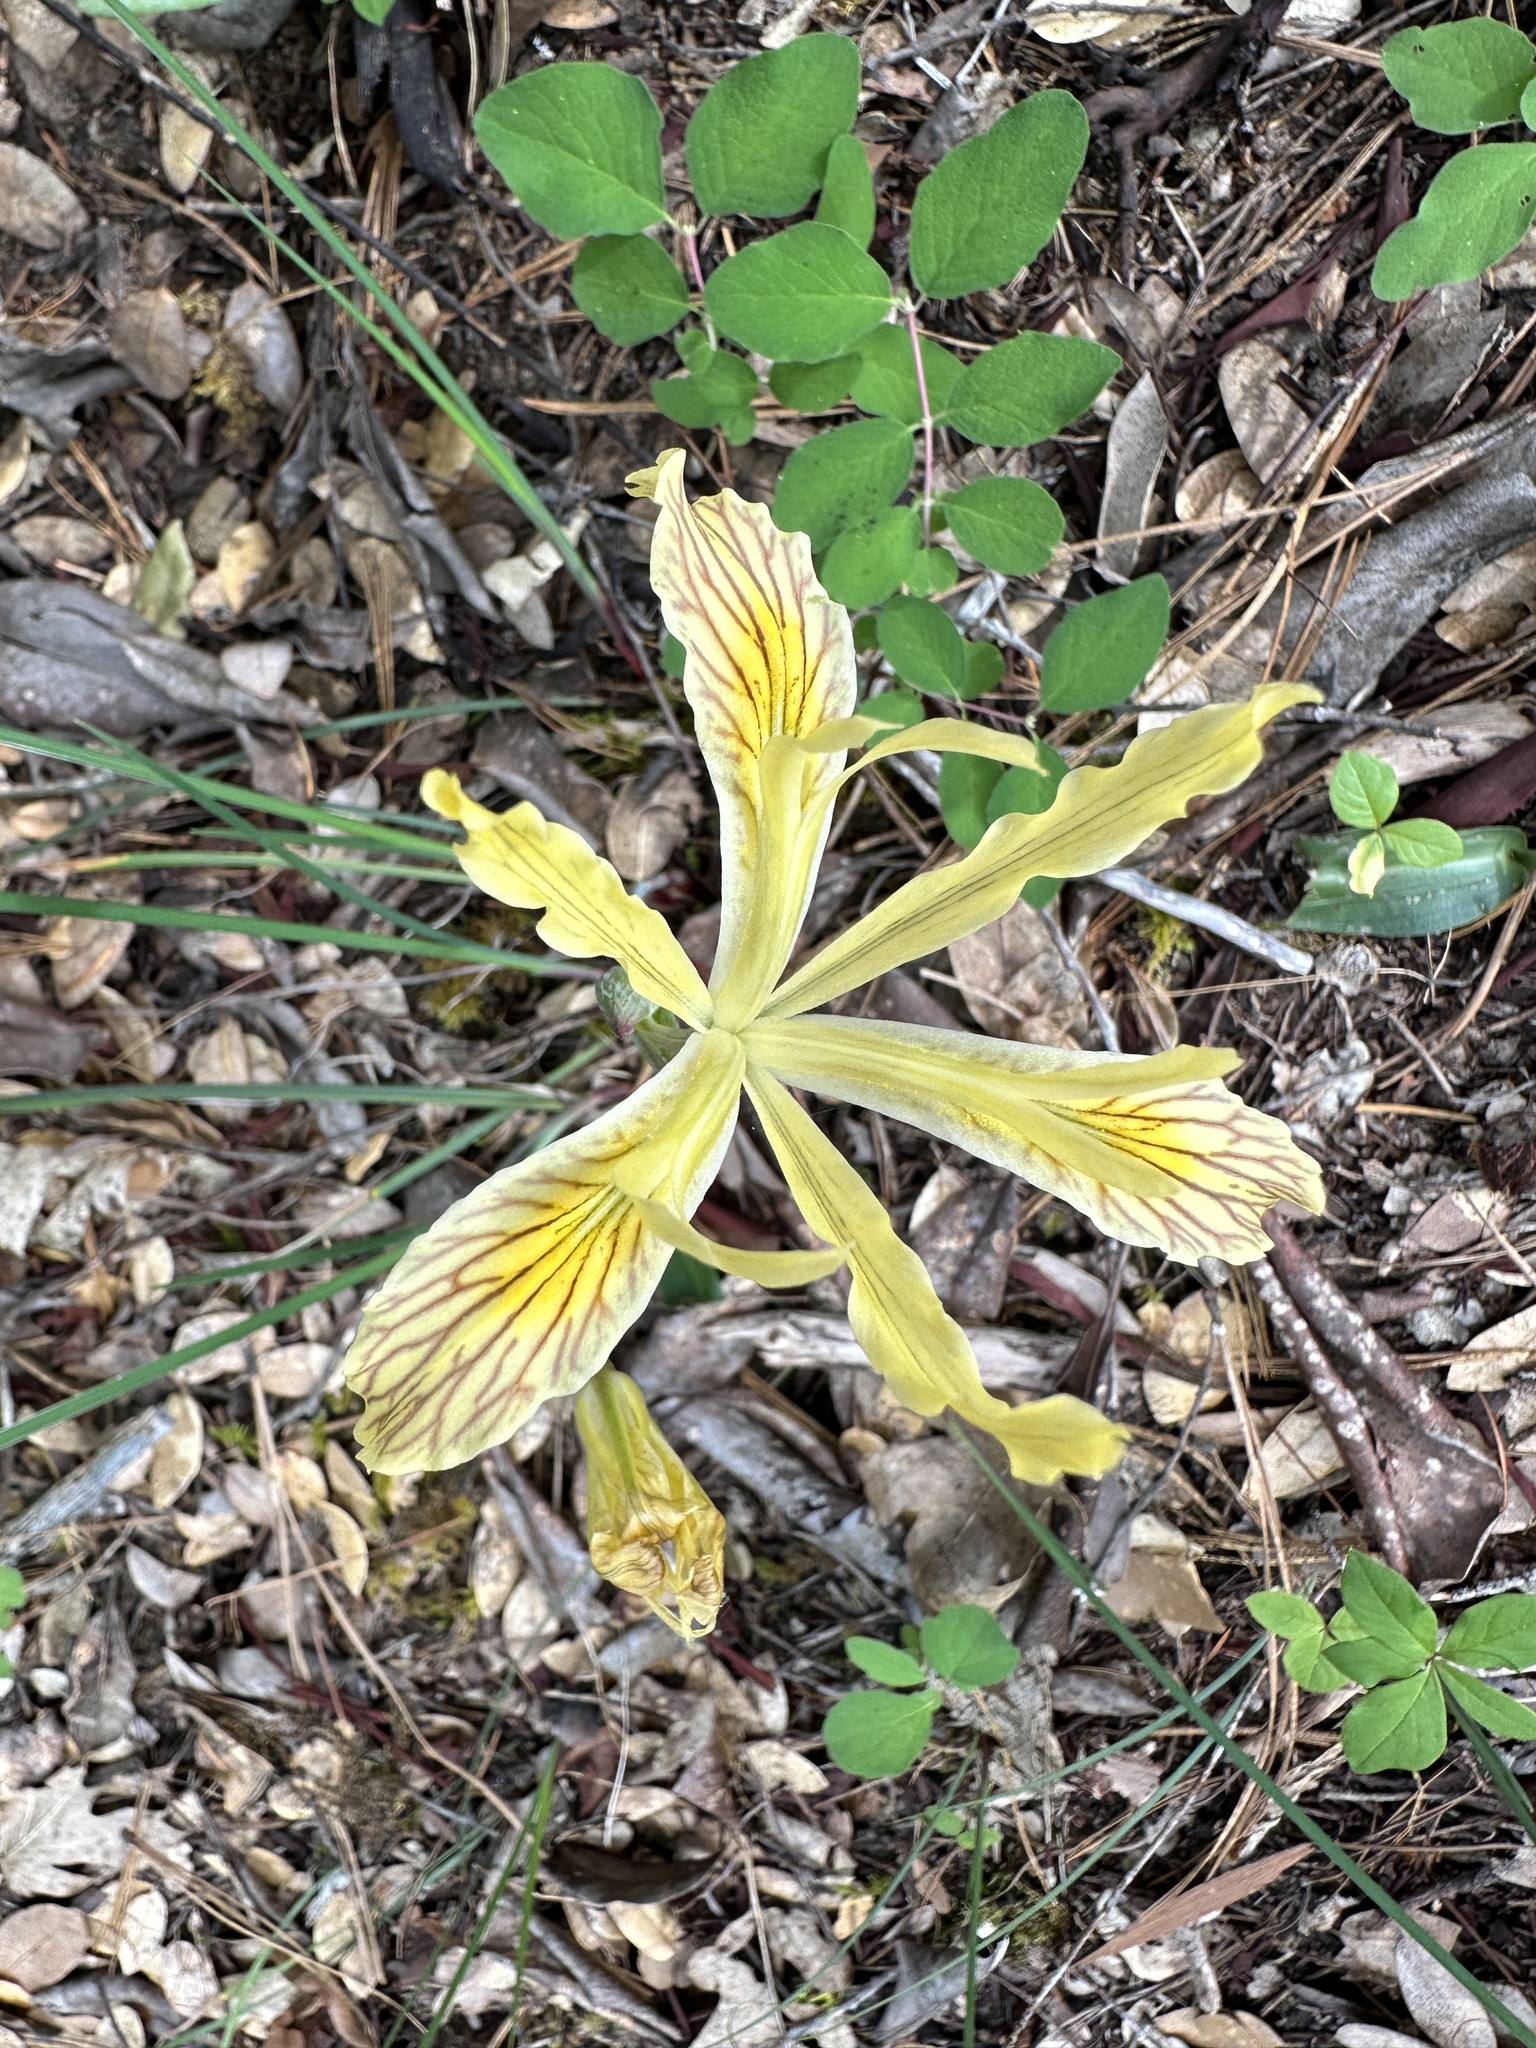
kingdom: Plantae
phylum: Tracheophyta
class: Liliopsida
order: Asparagales
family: Iridaceae
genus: Iris
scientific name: Iris chrysophylla
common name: Yellow-leaf iris
